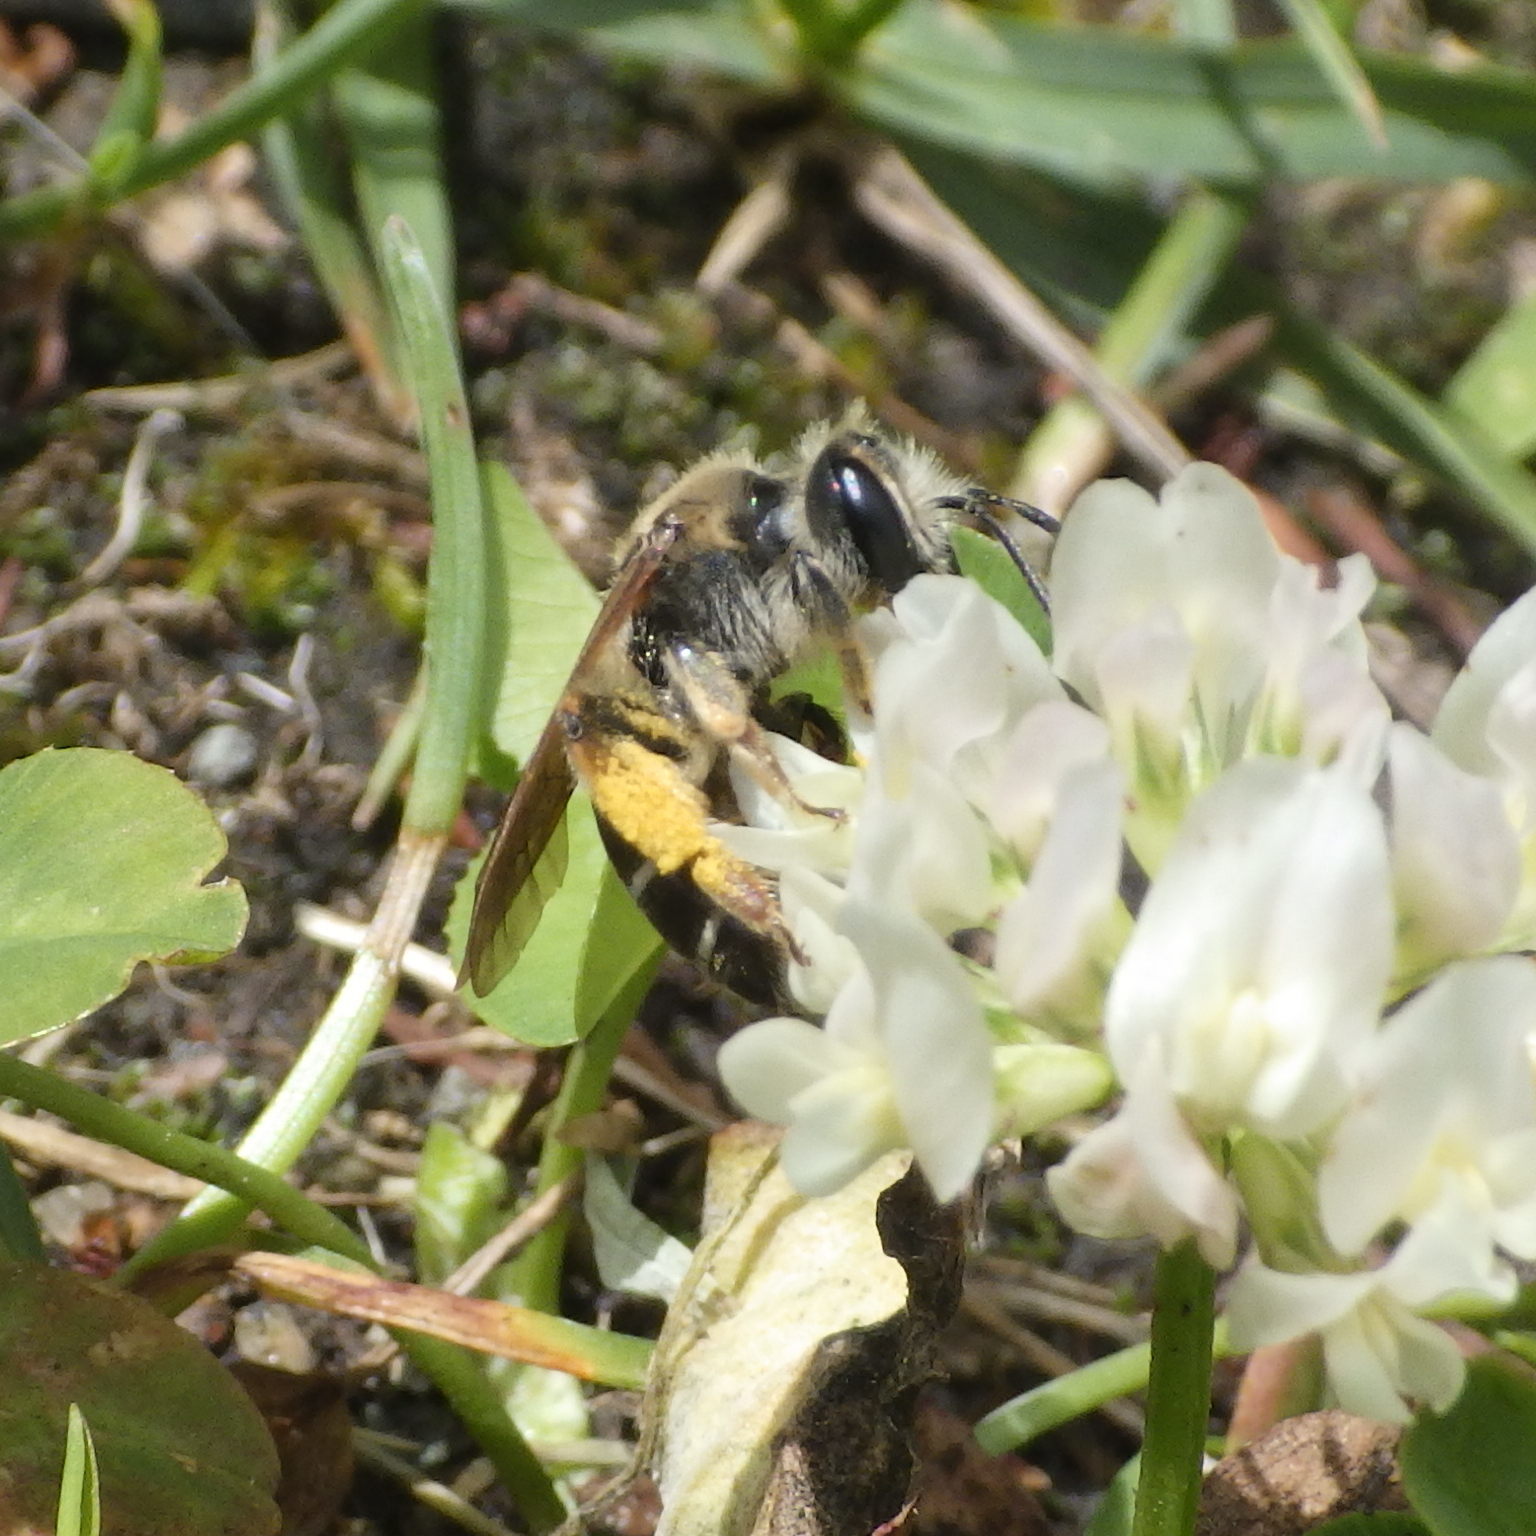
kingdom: Animalia
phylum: Arthropoda
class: Insecta
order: Hymenoptera
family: Andrenidae
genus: Andrena
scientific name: Andrena wilkella
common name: Wilke's mining bee
